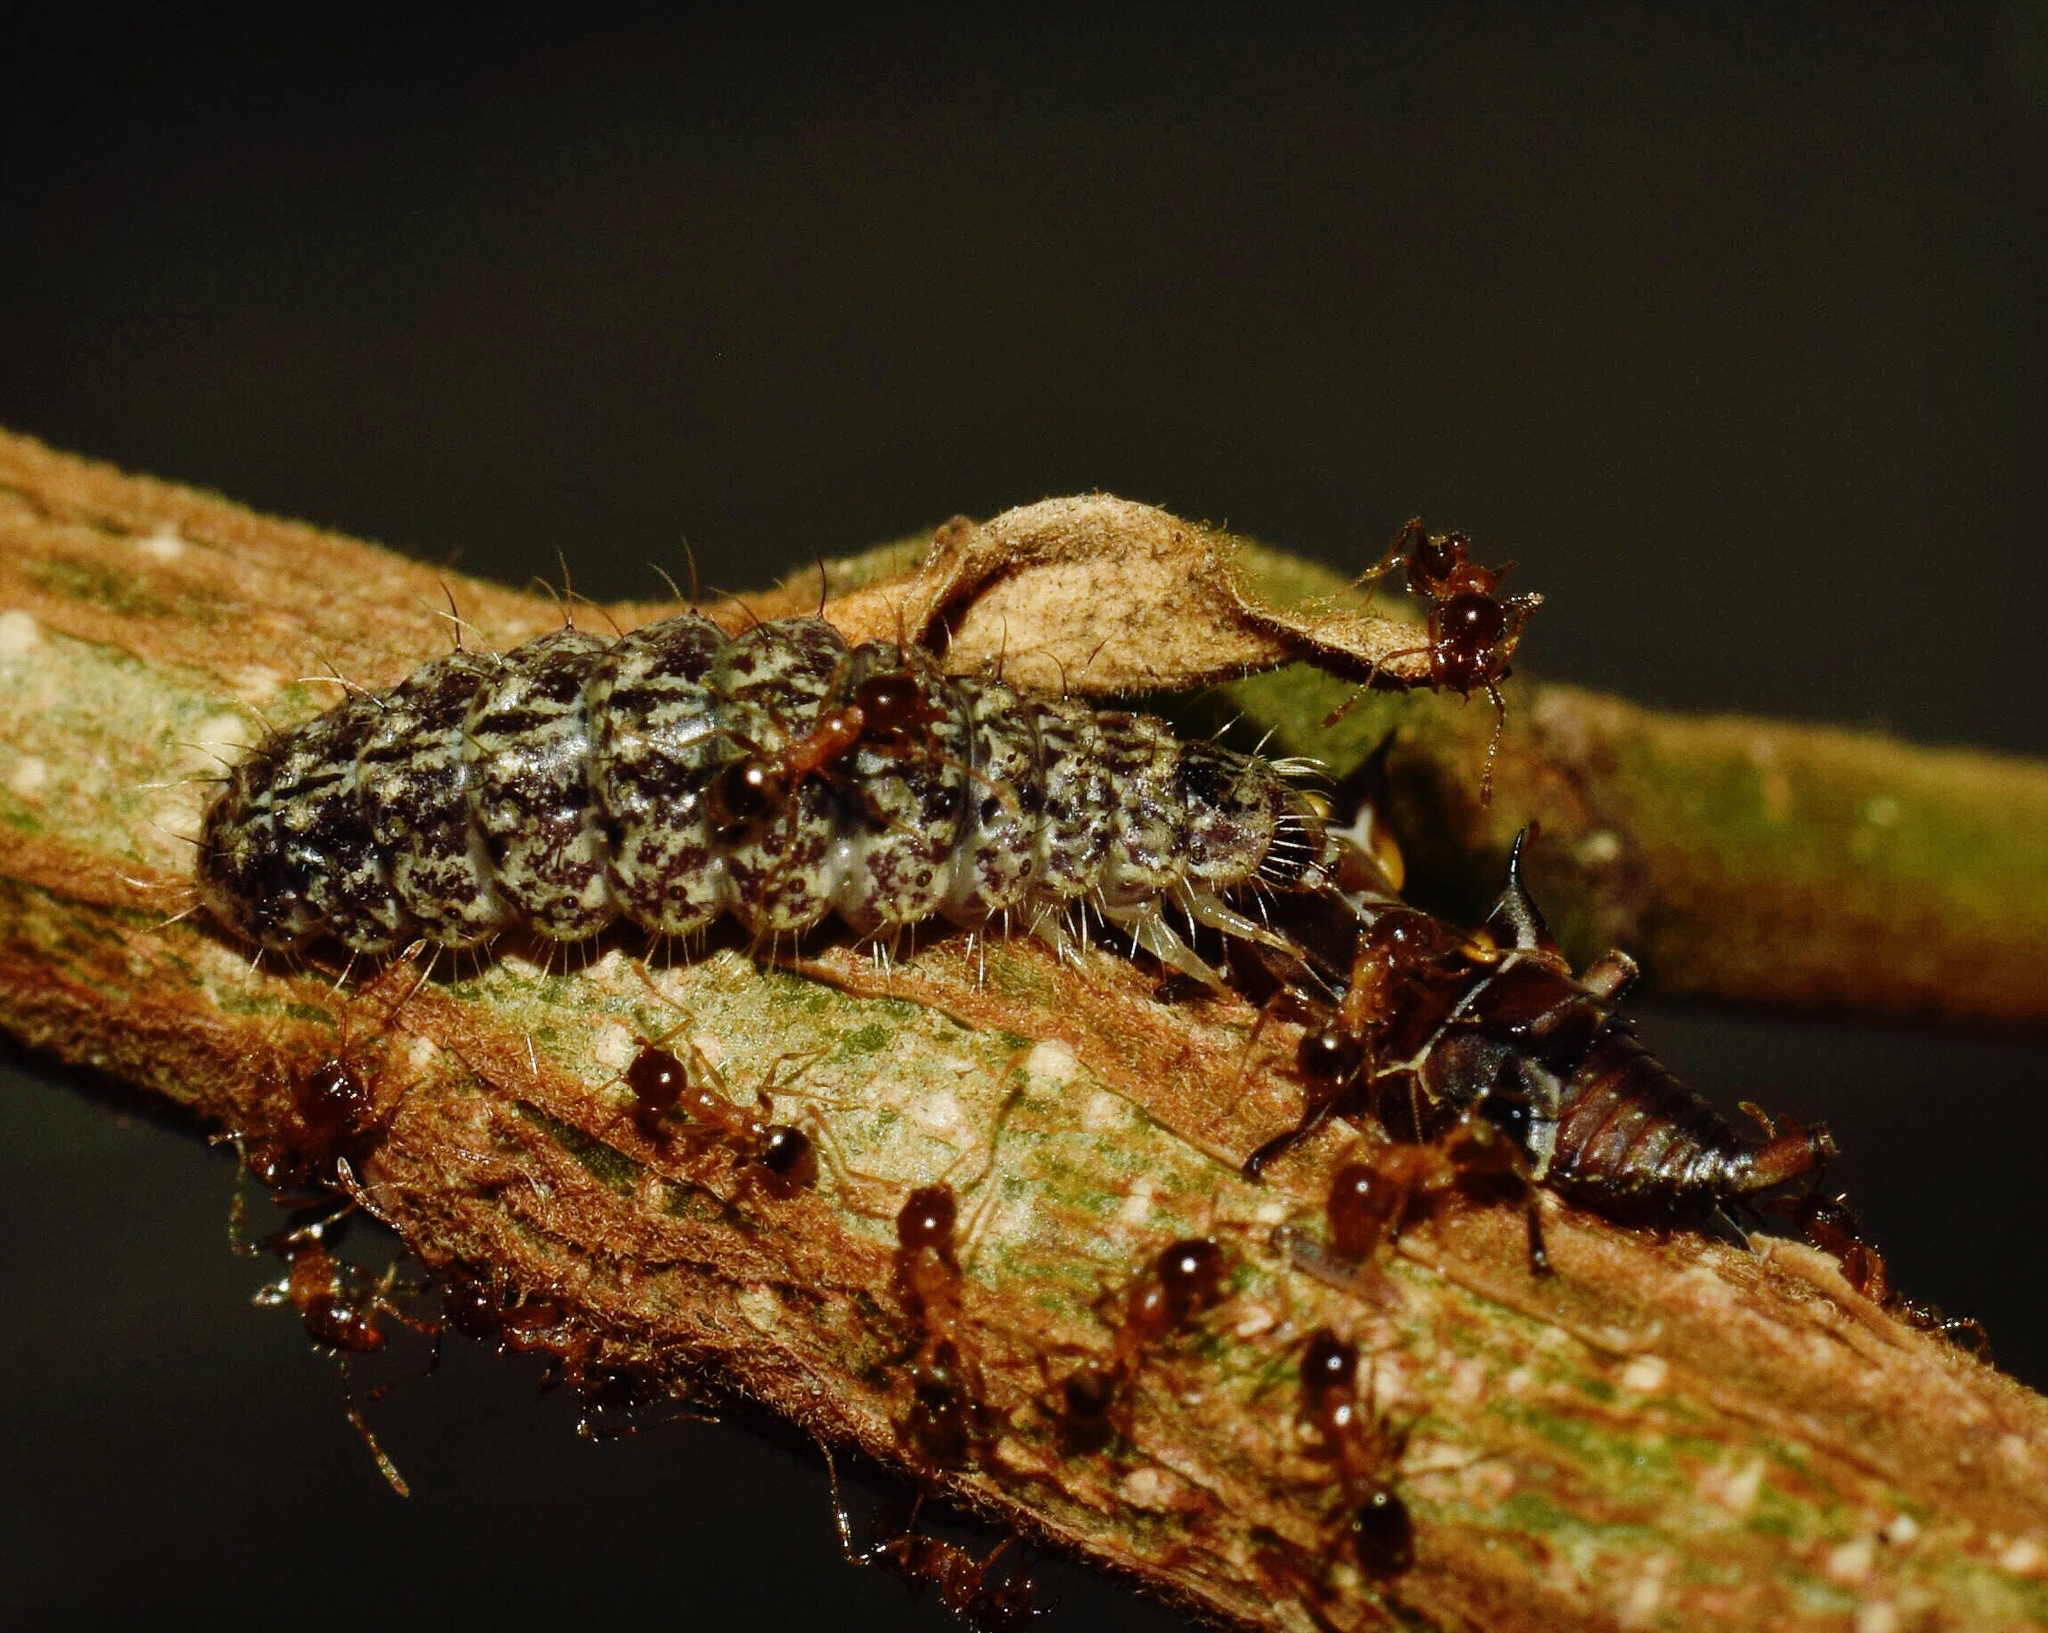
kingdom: Animalia
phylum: Arthropoda
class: Insecta
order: Lepidoptera
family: Lycaenidae
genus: Lachnocnema
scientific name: Lachnocnema bibulus
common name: Common woolly legs
